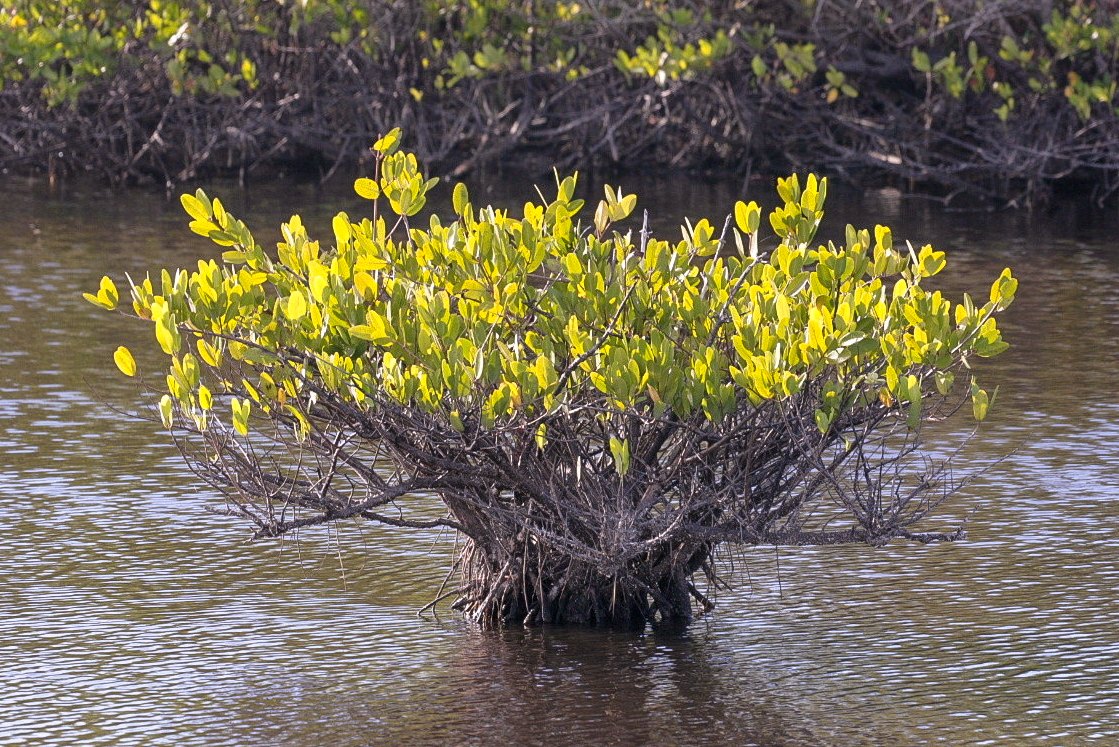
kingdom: Plantae
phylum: Tracheophyta
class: Magnoliopsida
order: Myrtales
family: Combretaceae
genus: Laguncularia
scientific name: Laguncularia racemosa
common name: White mangrove
